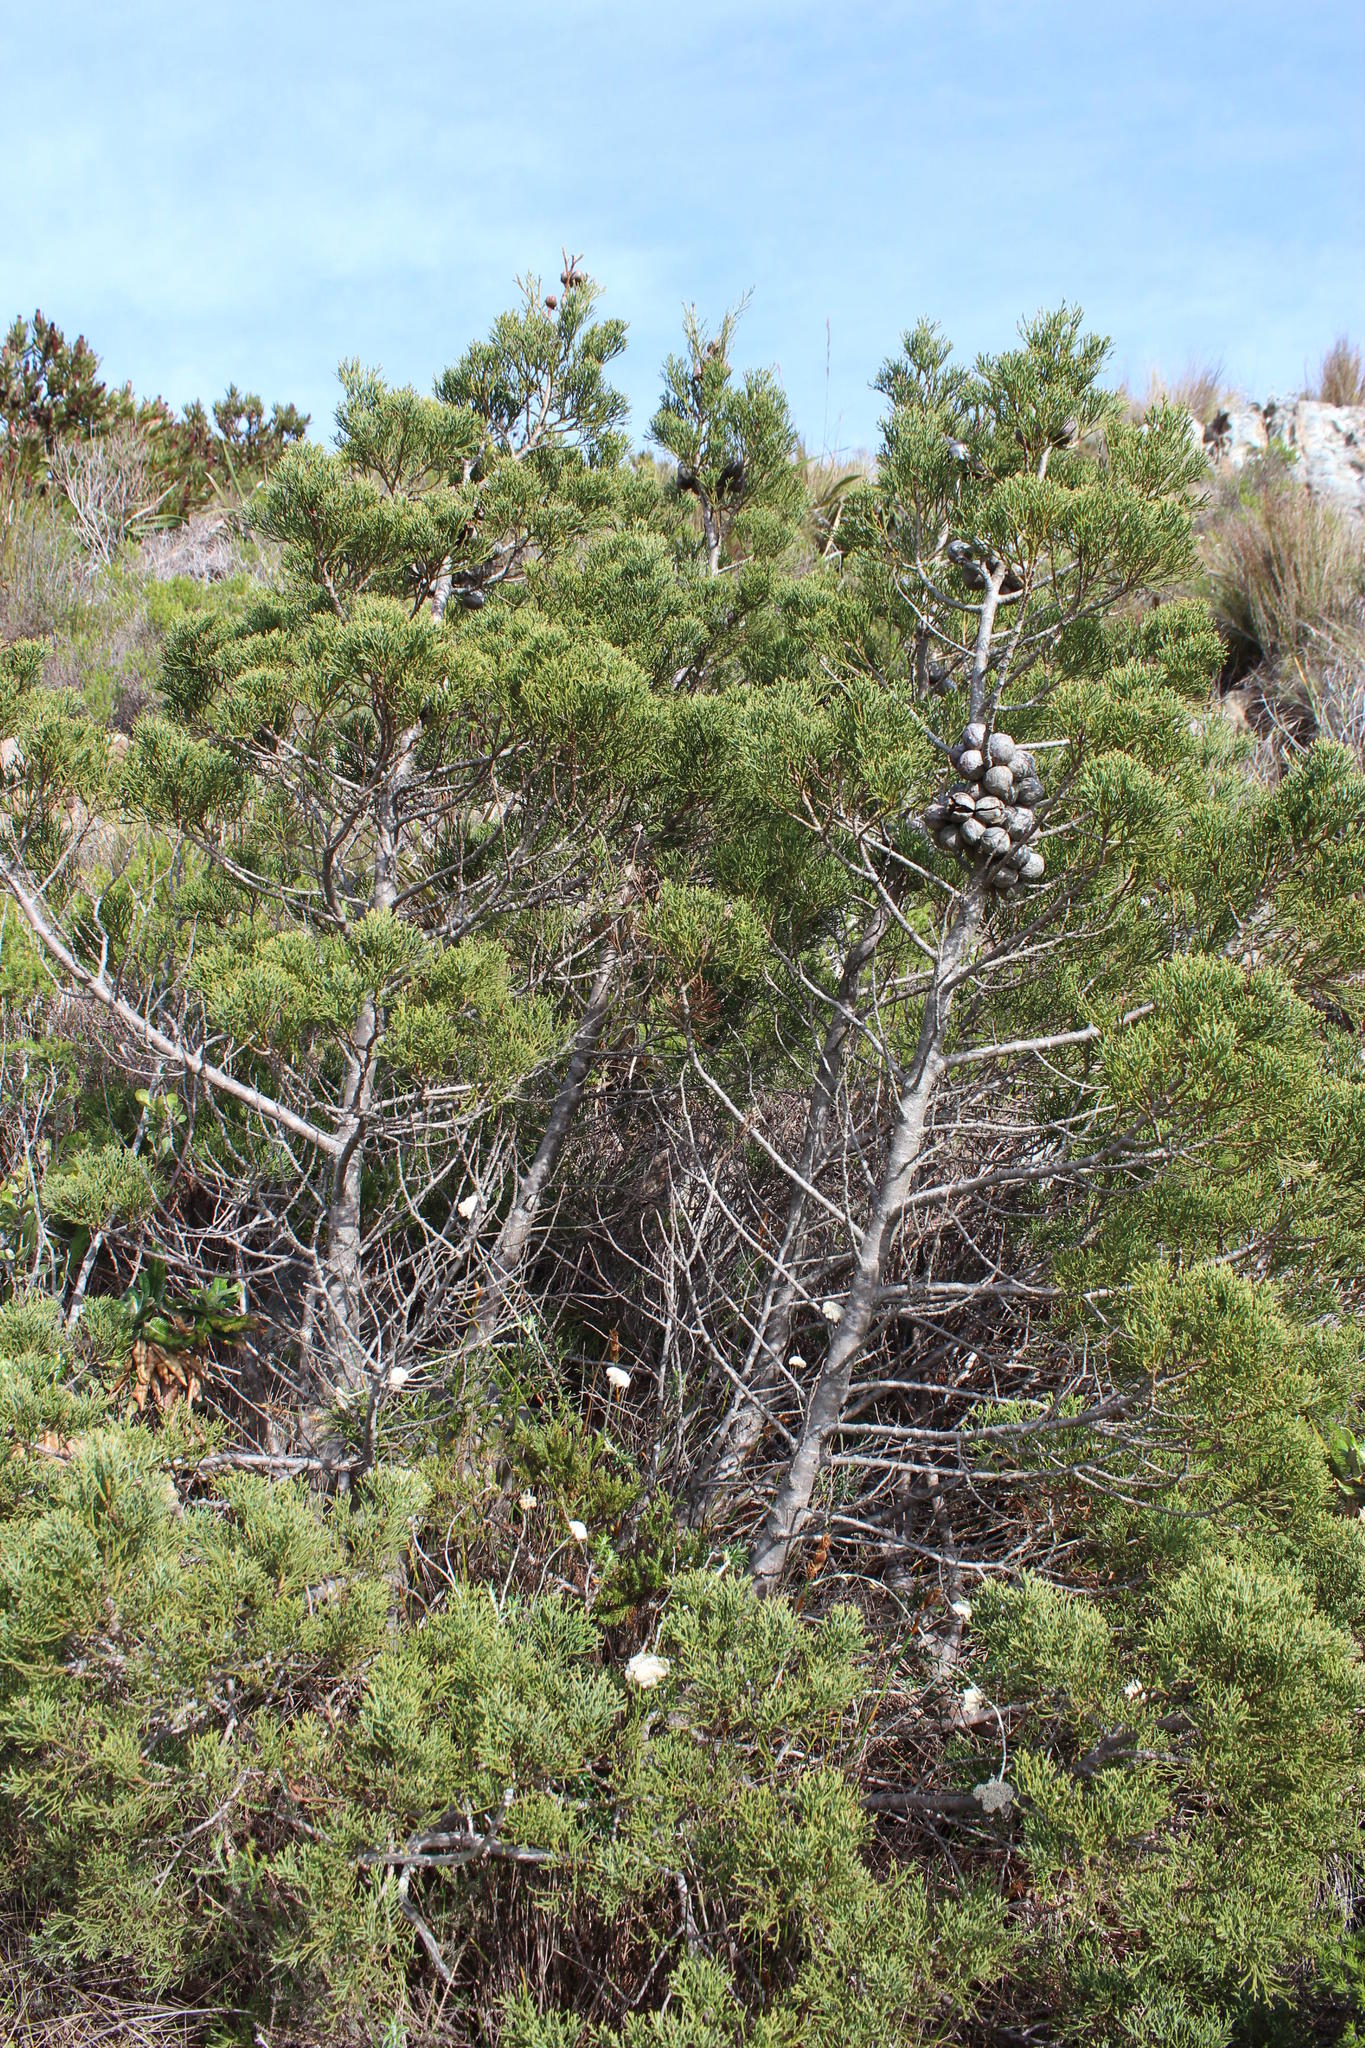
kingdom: Plantae
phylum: Tracheophyta
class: Pinopsida
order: Pinales
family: Cupressaceae
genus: Widdringtonia
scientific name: Widdringtonia nodiflora
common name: Cape cypress
